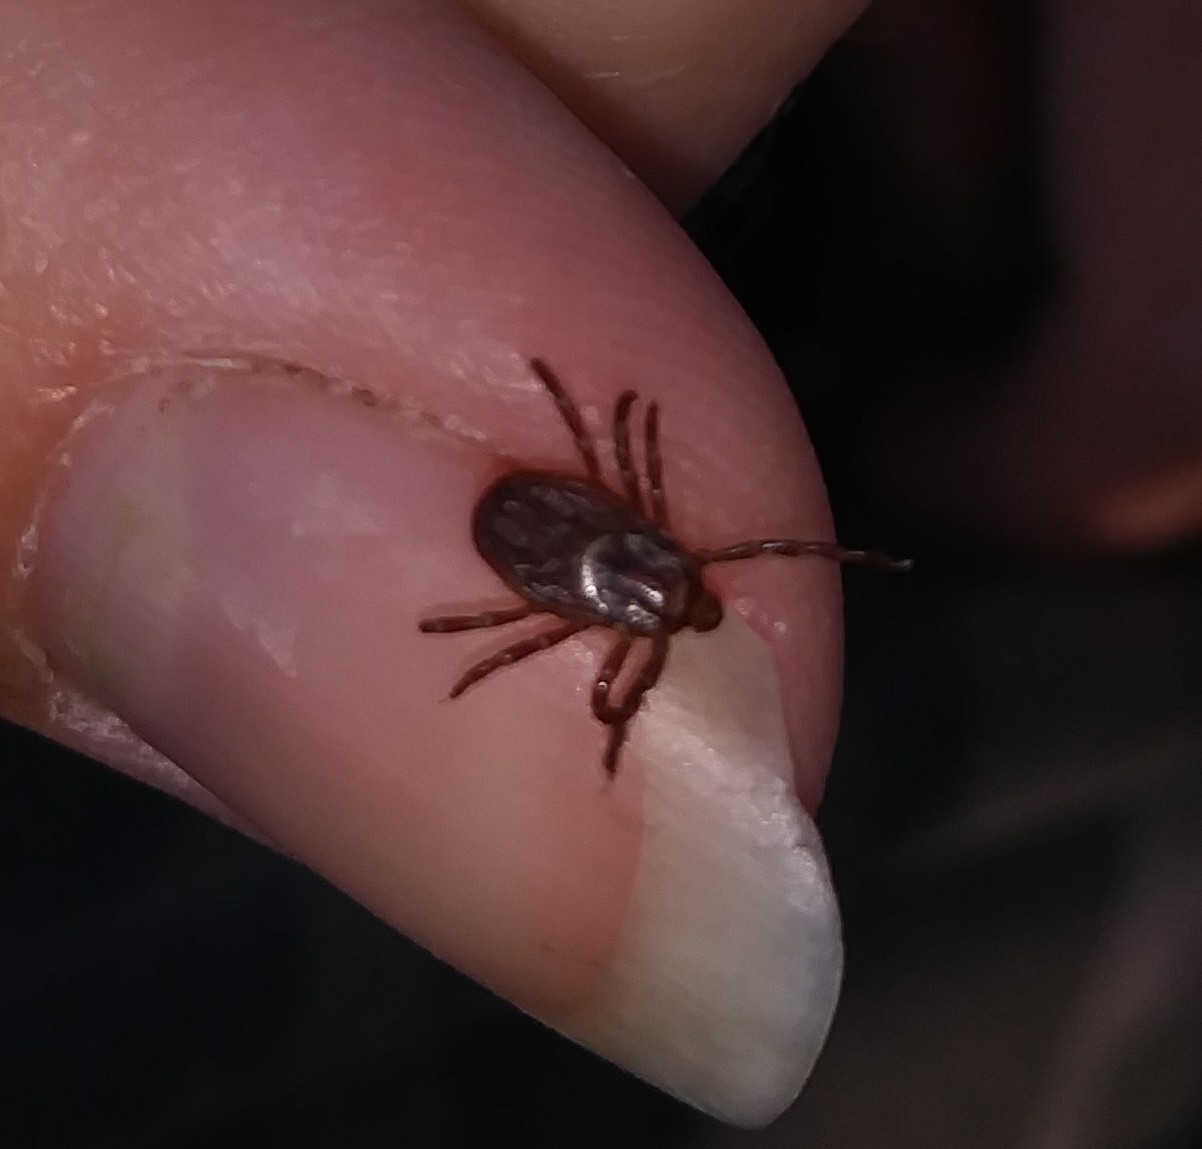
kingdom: Animalia
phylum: Arthropoda
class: Arachnida
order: Ixodida
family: Ixodidae
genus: Dermacentor
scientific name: Dermacentor variabilis
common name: American dog tick
